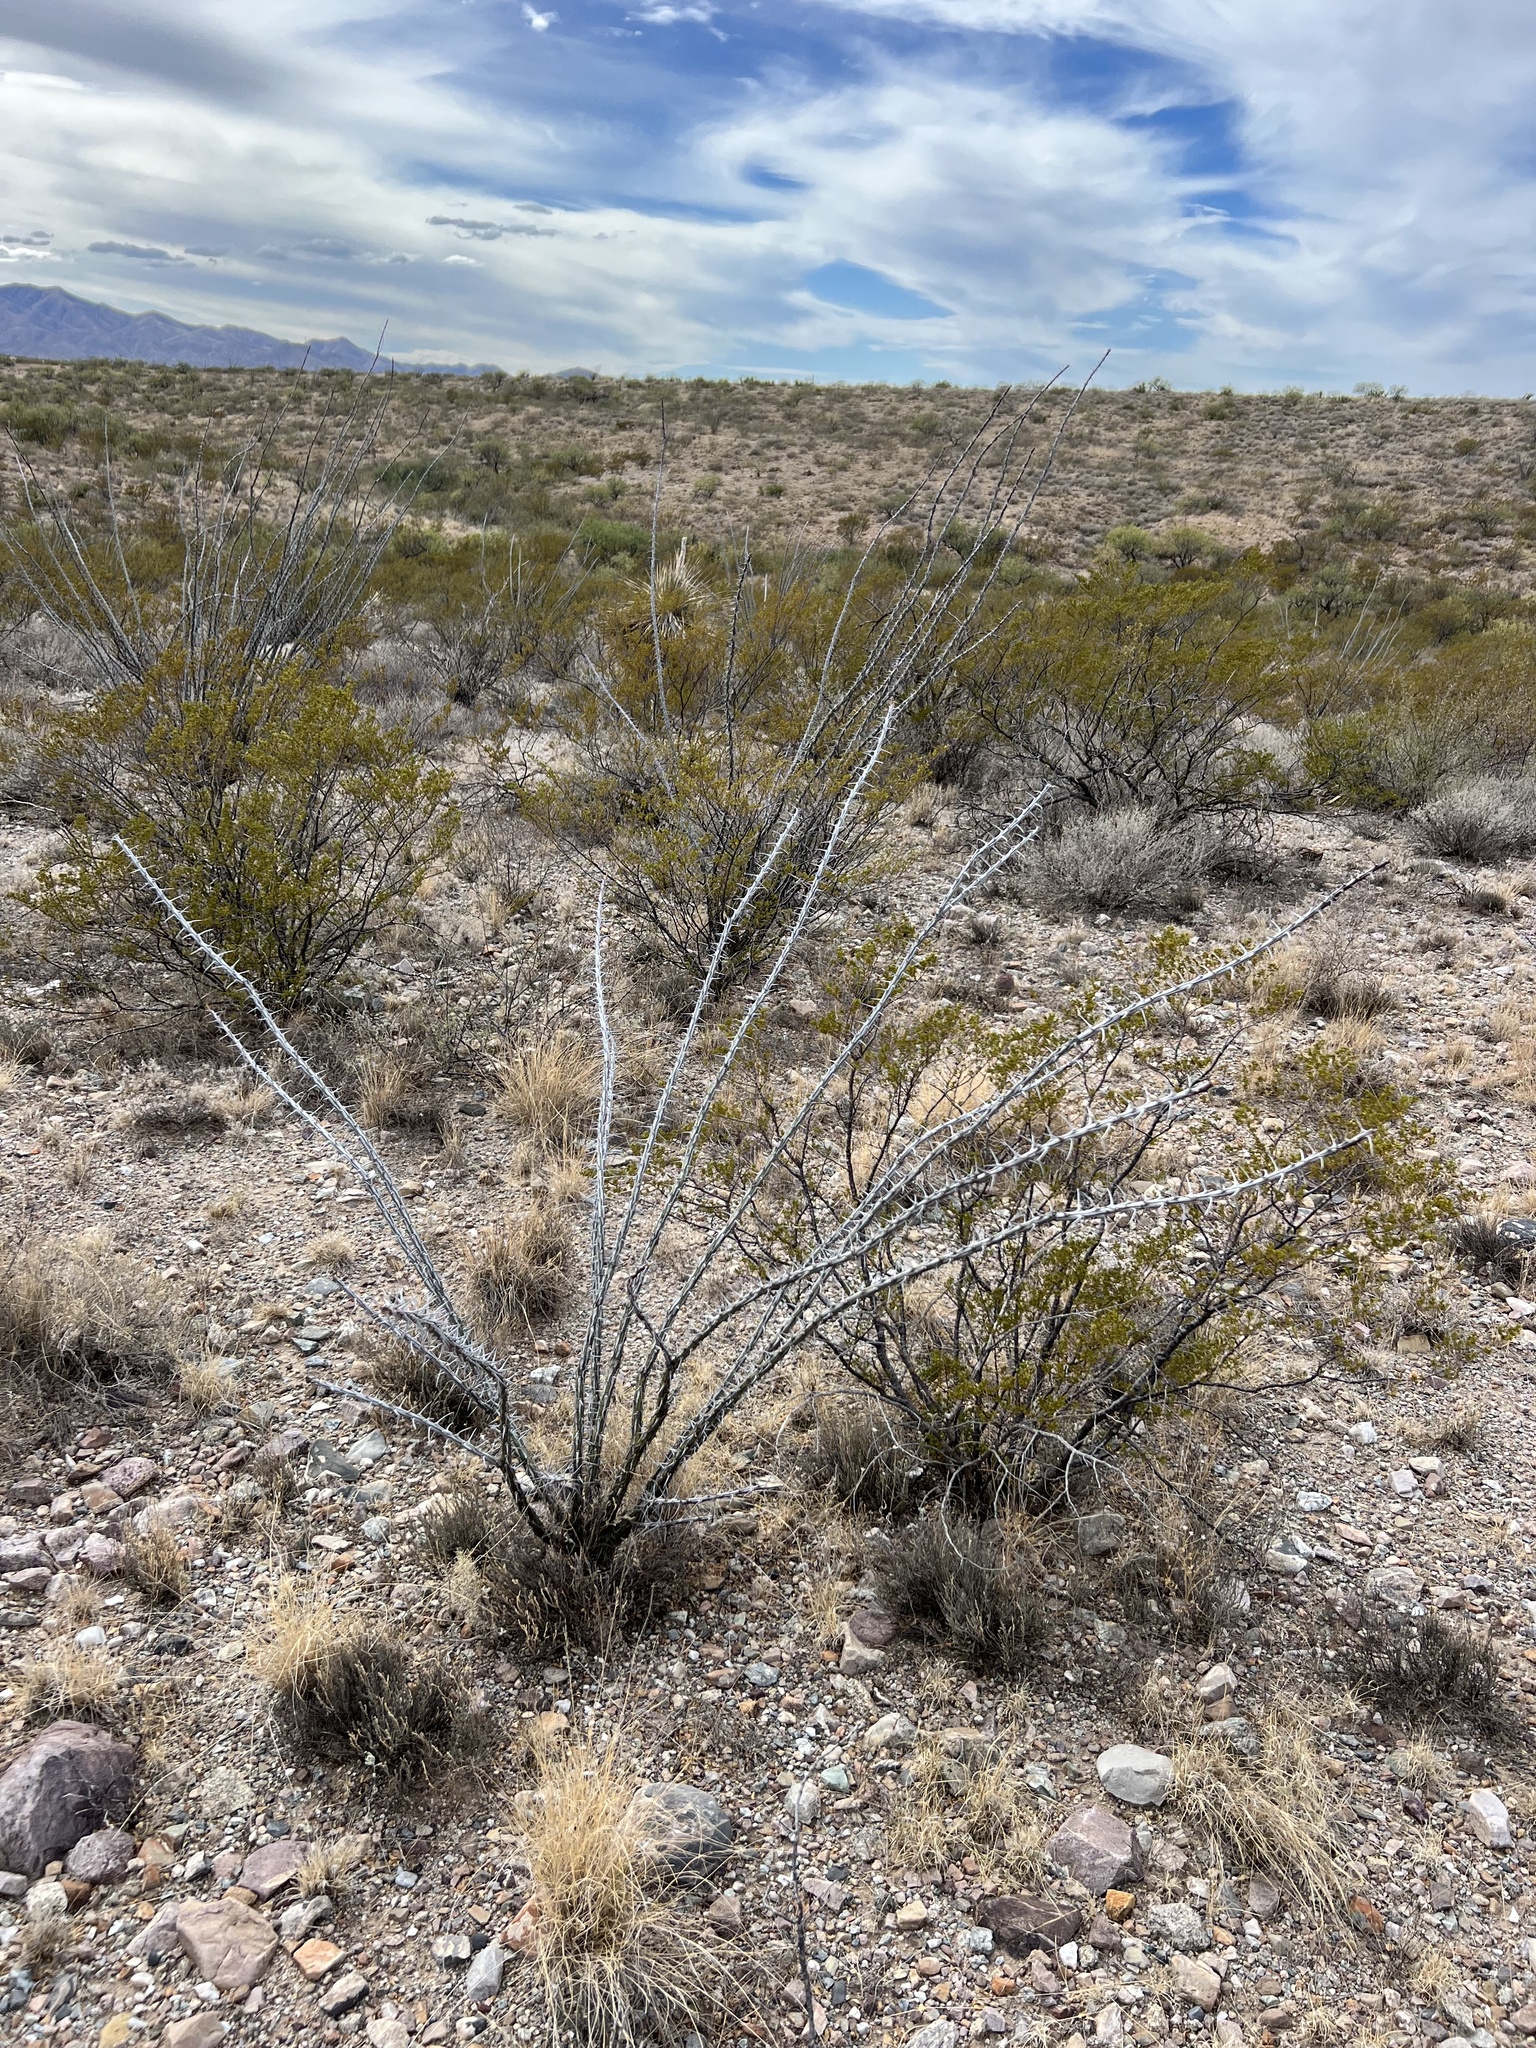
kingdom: Plantae
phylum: Tracheophyta
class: Magnoliopsida
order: Ericales
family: Fouquieriaceae
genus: Fouquieria
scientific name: Fouquieria splendens
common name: Vine-cactus
